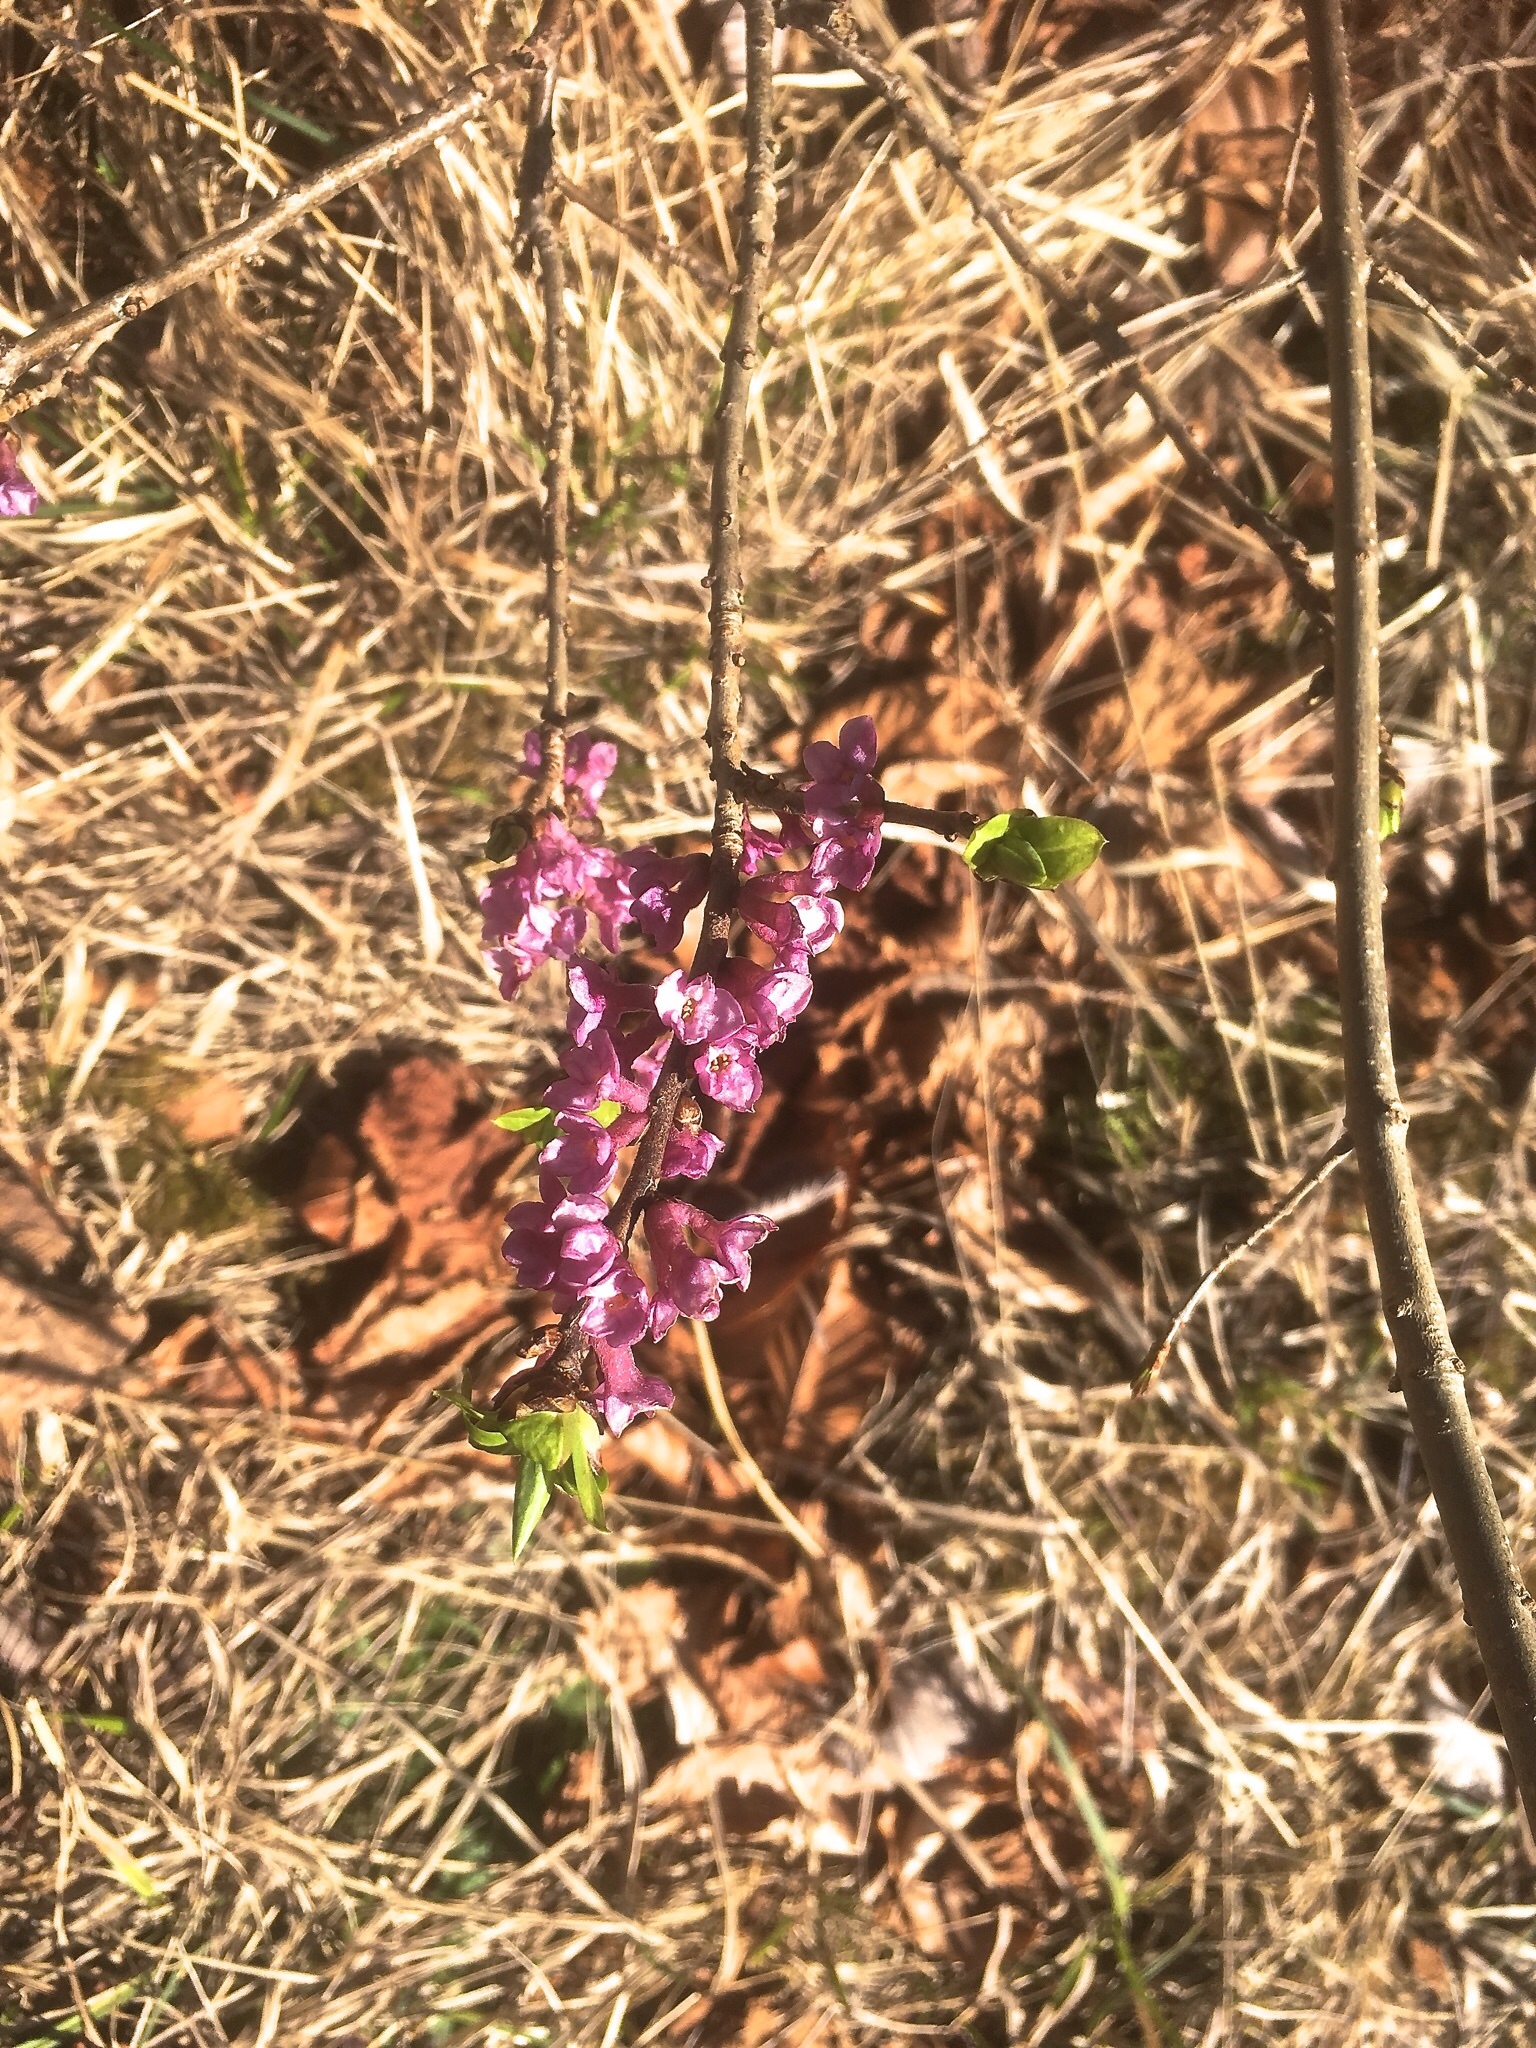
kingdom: Plantae
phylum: Tracheophyta
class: Magnoliopsida
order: Malvales
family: Thymelaeaceae
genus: Daphne
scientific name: Daphne mezereum
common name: Mezereon
